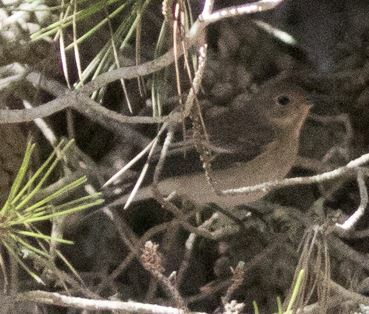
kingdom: Animalia
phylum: Chordata
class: Aves
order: Passeriformes
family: Muscicapidae
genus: Ficedula
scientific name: Ficedula hypoleuca
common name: European pied flycatcher
